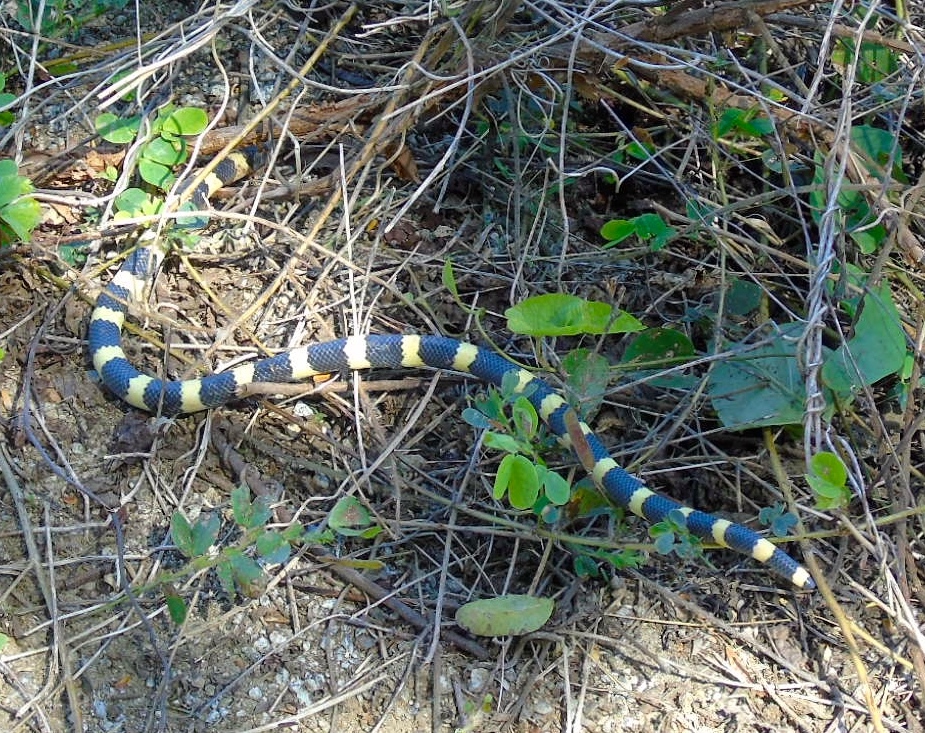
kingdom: Animalia
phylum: Chordata
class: Squamata
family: Colubridae
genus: Sympholis
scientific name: Sympholis lippiens
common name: Mexican short-tail snake
